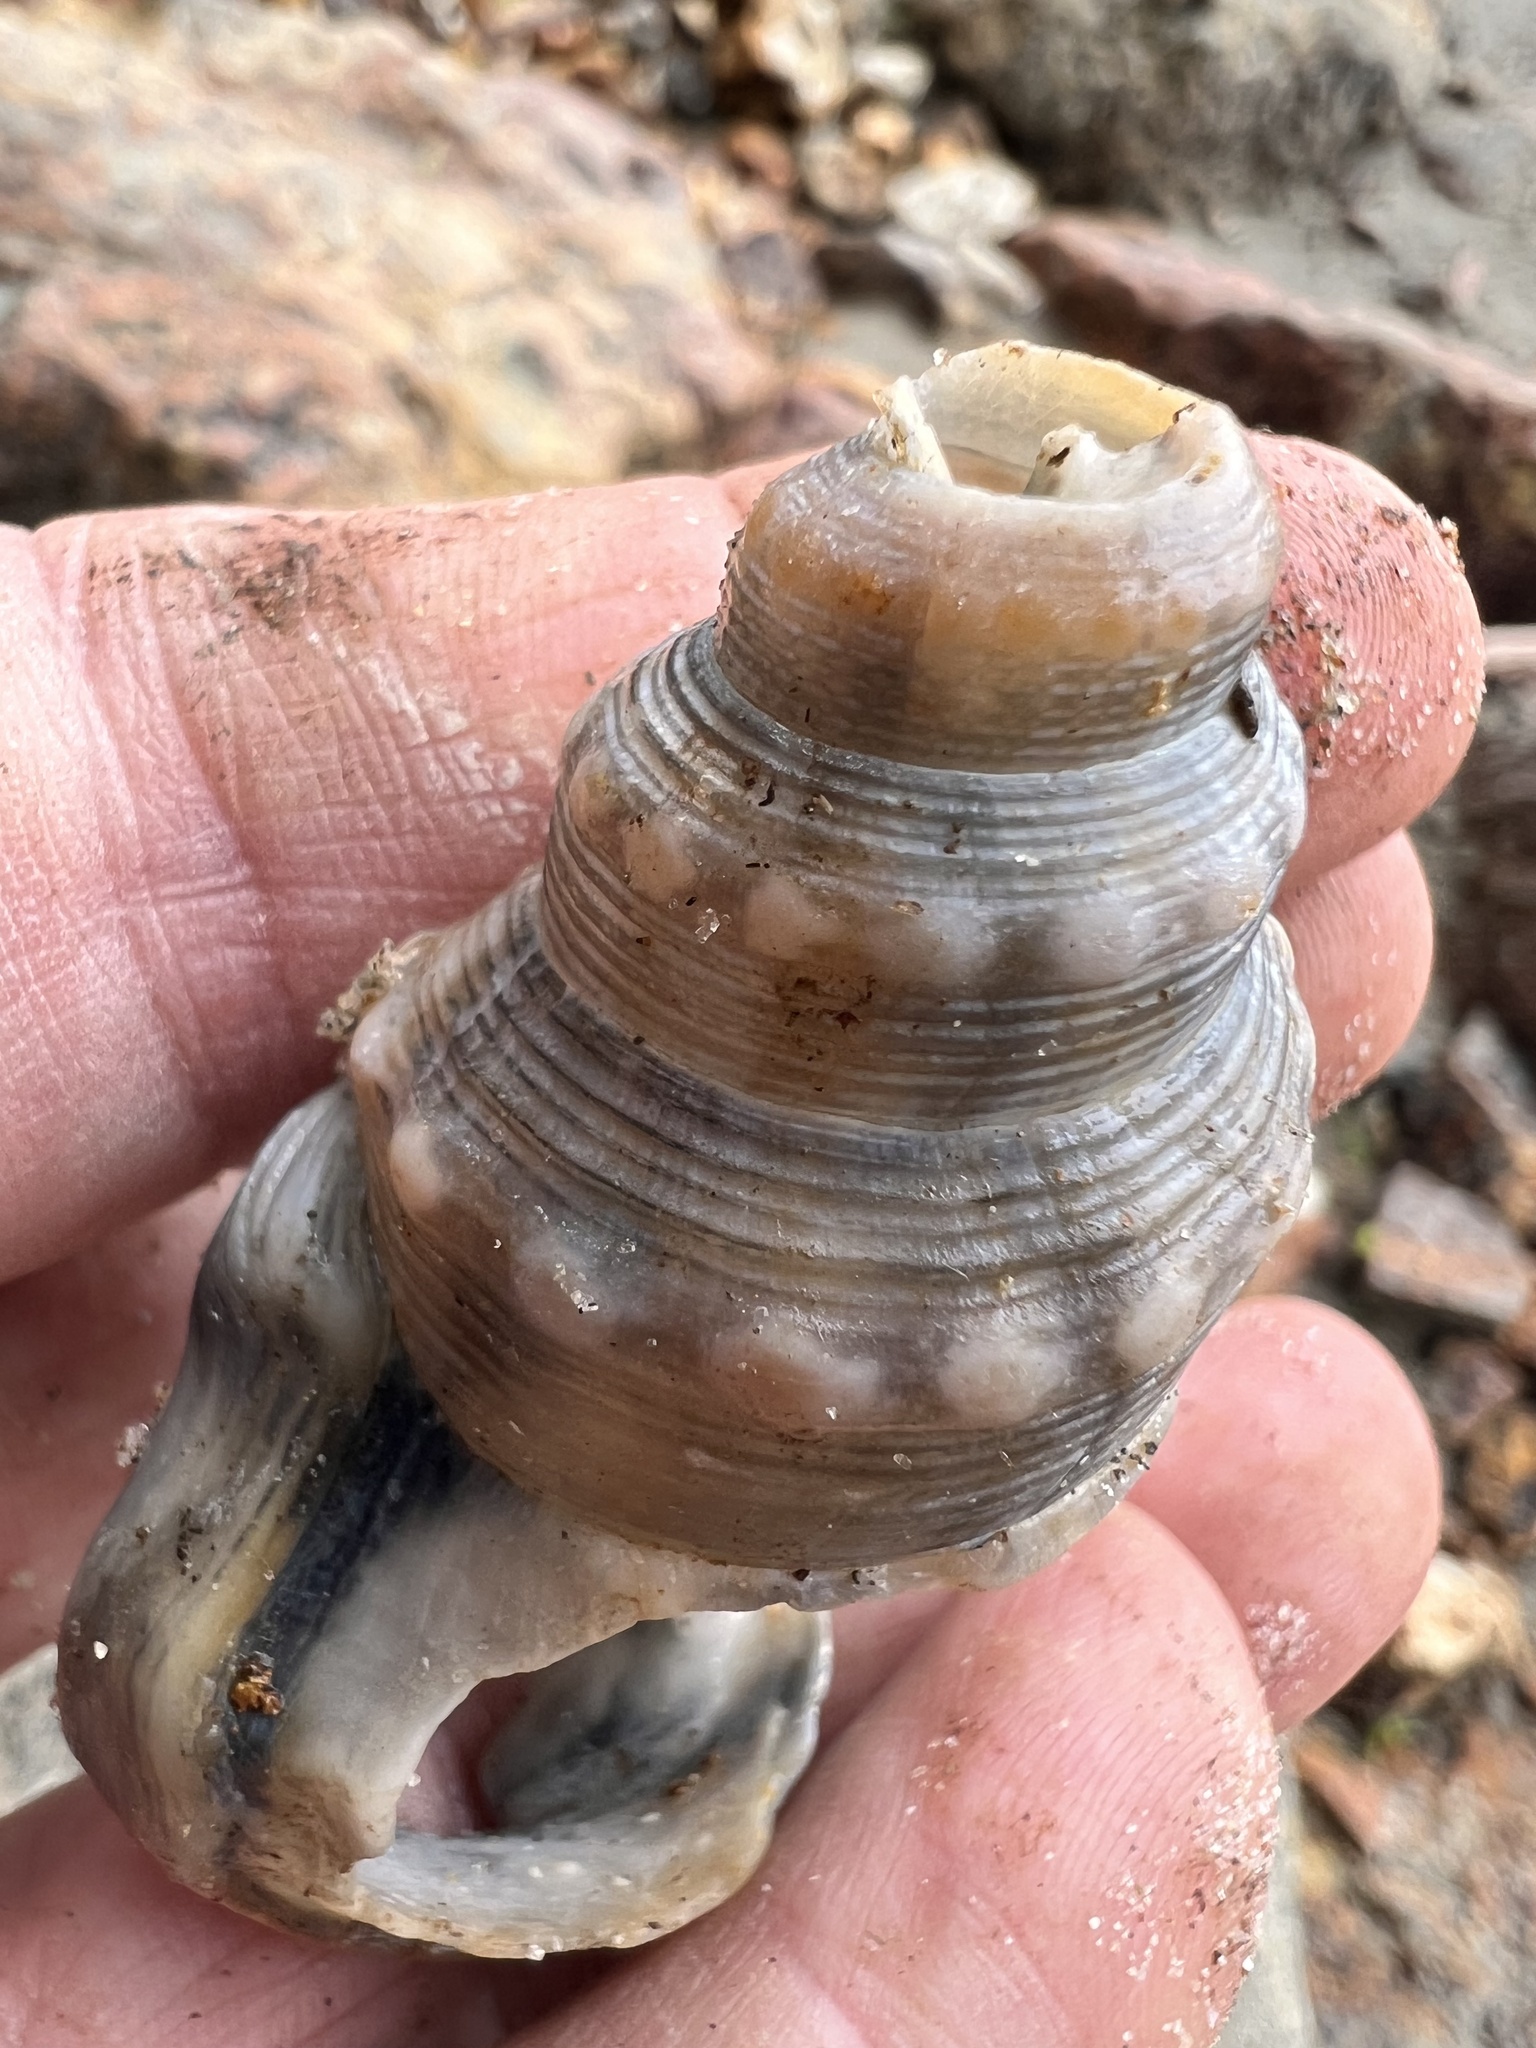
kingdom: Animalia
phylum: Mollusca
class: Gastropoda
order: Littorinimorpha
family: Struthiolariidae
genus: Struthiolaria
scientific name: Struthiolaria papulosa
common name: Large ostrich foot
